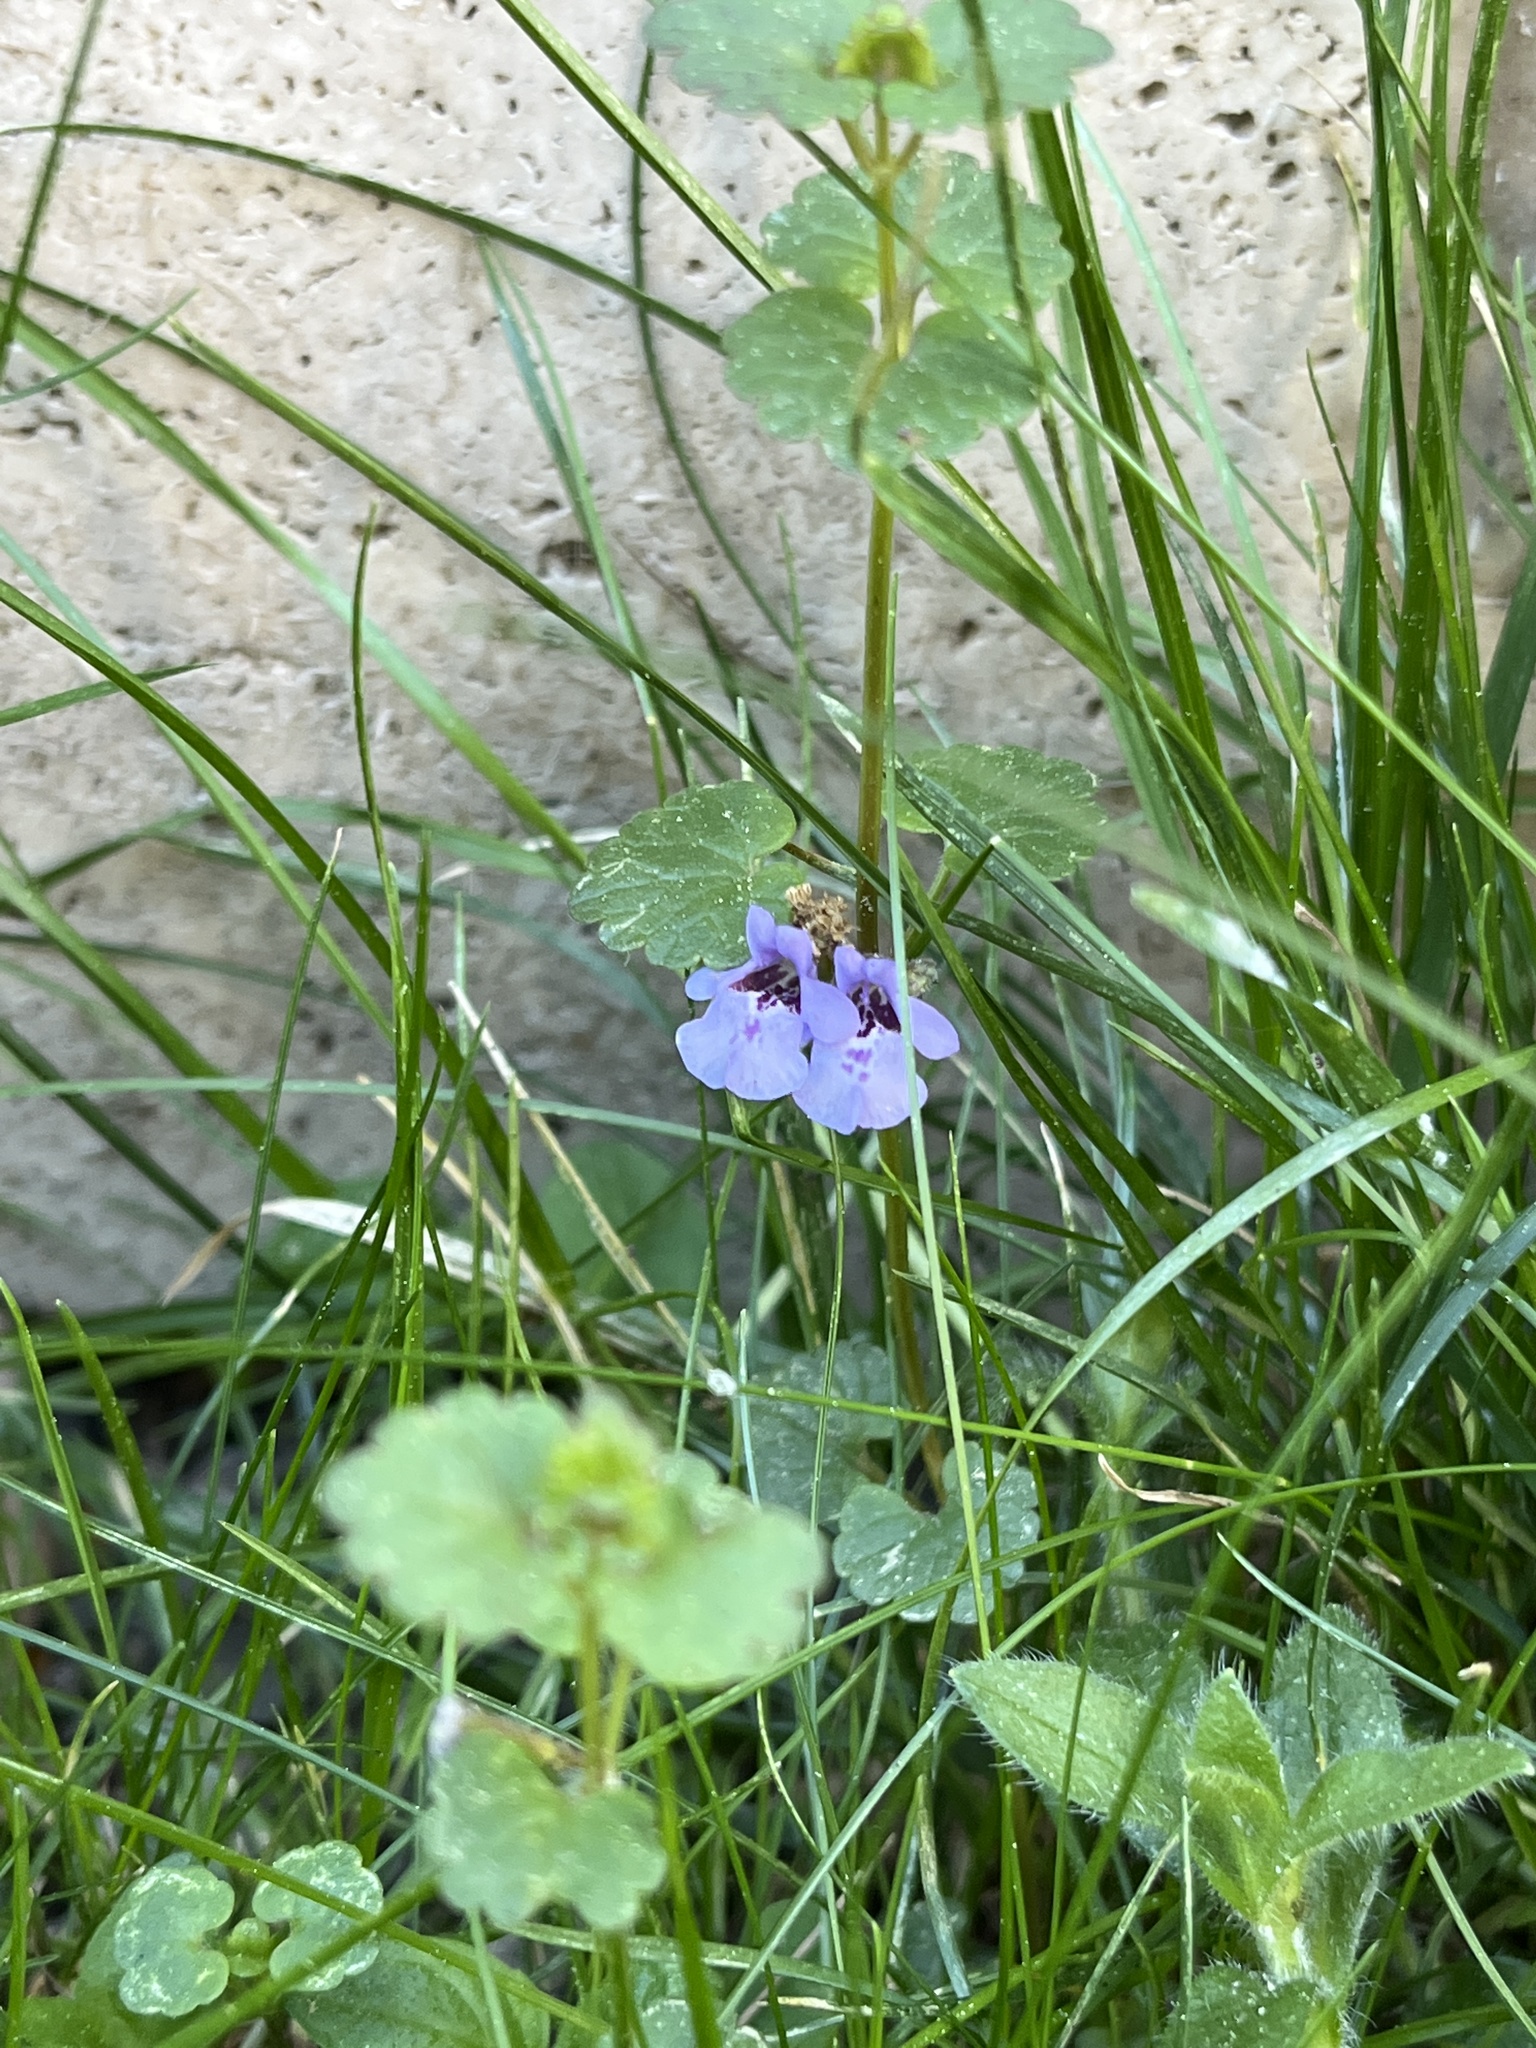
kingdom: Plantae
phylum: Tracheophyta
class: Magnoliopsida
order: Lamiales
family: Lamiaceae
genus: Glechoma
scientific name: Glechoma hederacea
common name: Ground ivy
